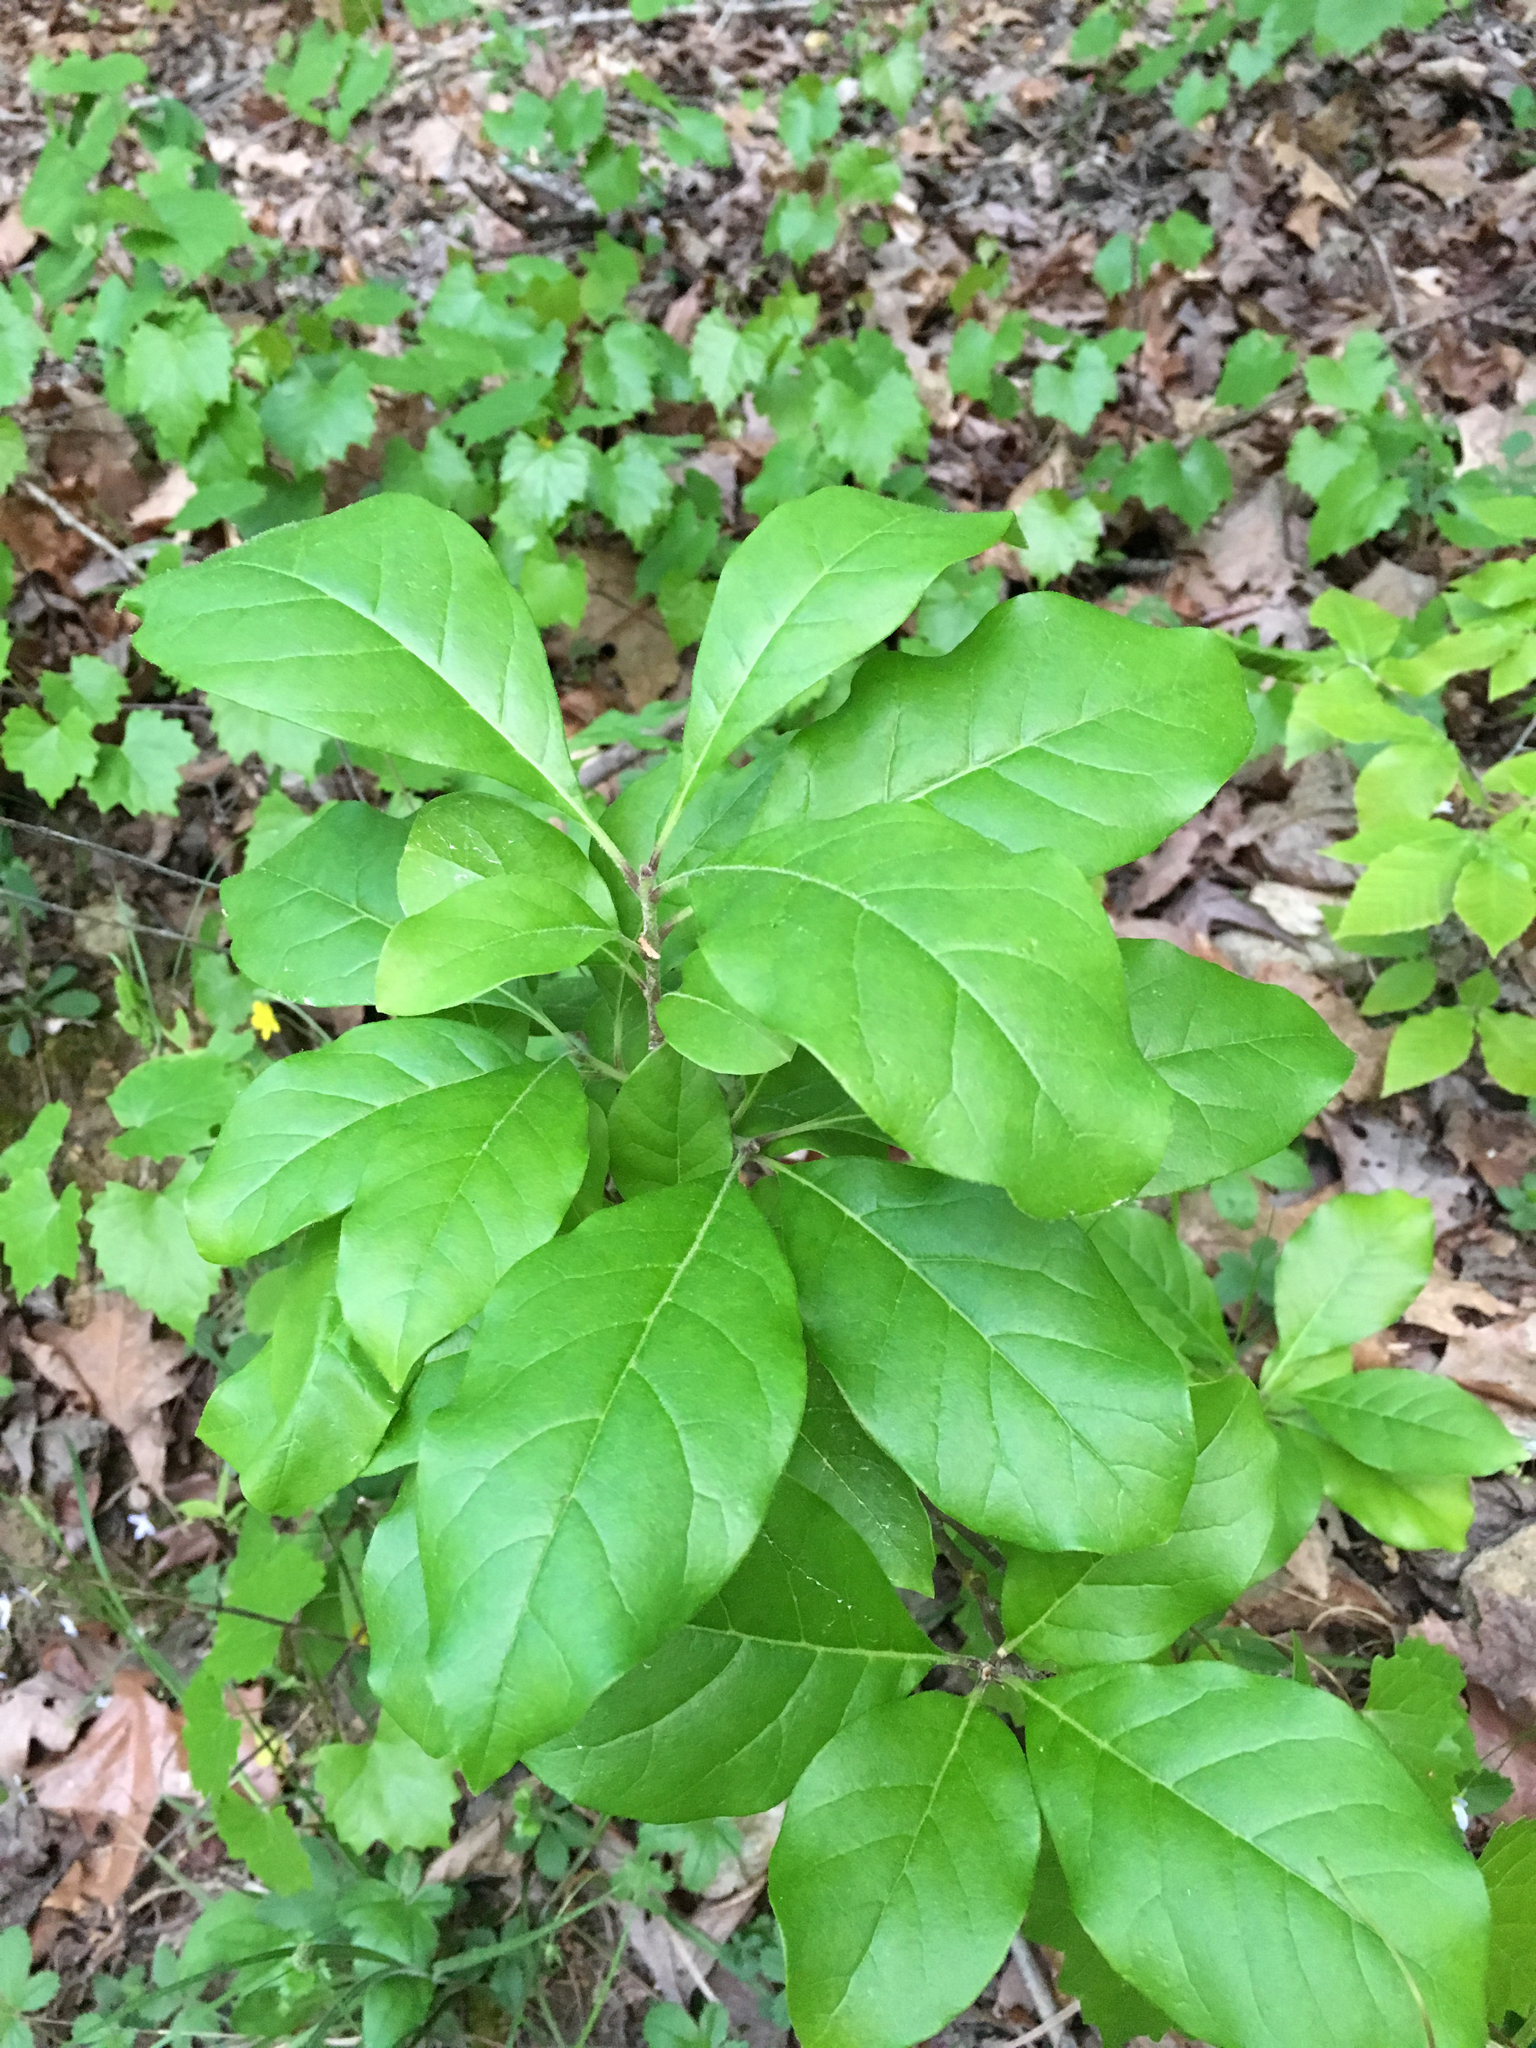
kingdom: Plantae
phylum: Tracheophyta
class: Magnoliopsida
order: Lamiales
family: Oleaceae
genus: Chionanthus
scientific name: Chionanthus virginicus
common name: American fringetree
